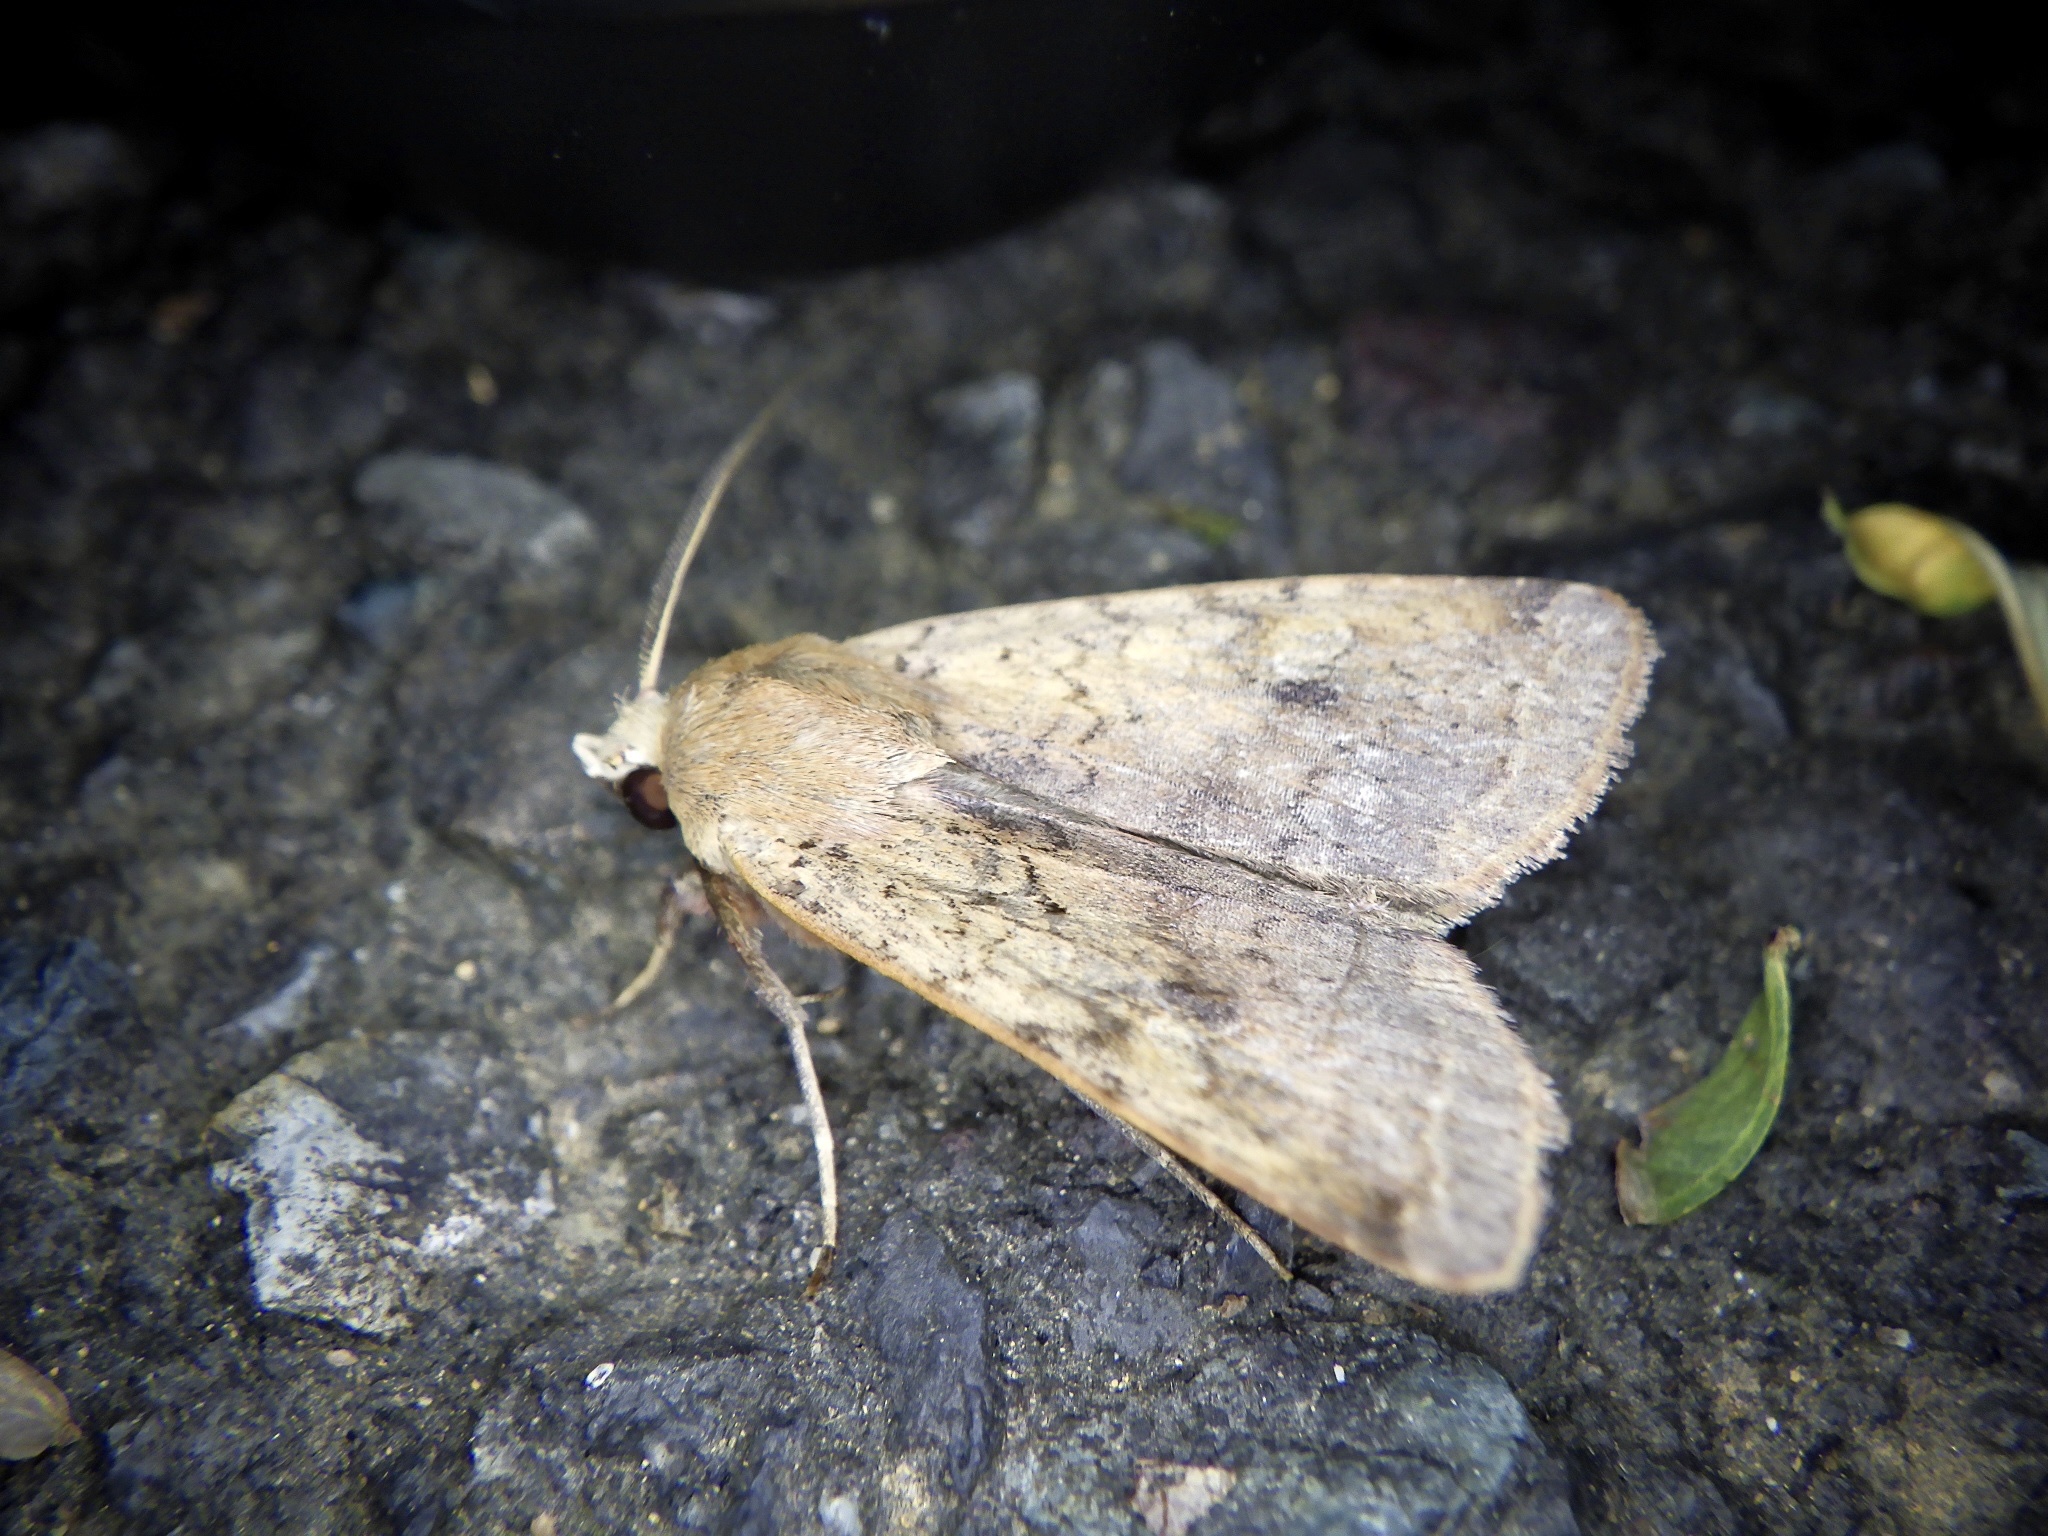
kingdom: Animalia
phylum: Arthropoda
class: Insecta
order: Lepidoptera
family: Noctuidae
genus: Diarsia
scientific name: Diarsia deparca
